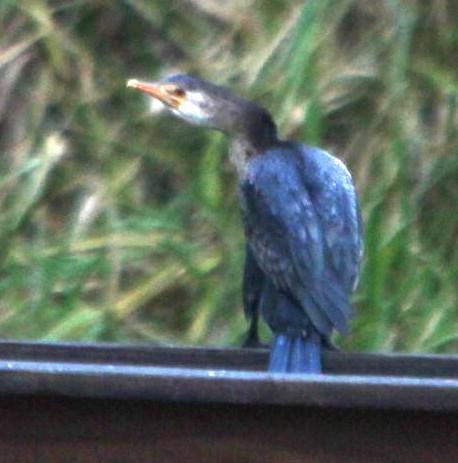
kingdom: Animalia
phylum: Chordata
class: Aves
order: Suliformes
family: Phalacrocoracidae
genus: Microcarbo
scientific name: Microcarbo africanus
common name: Long-tailed cormorant
